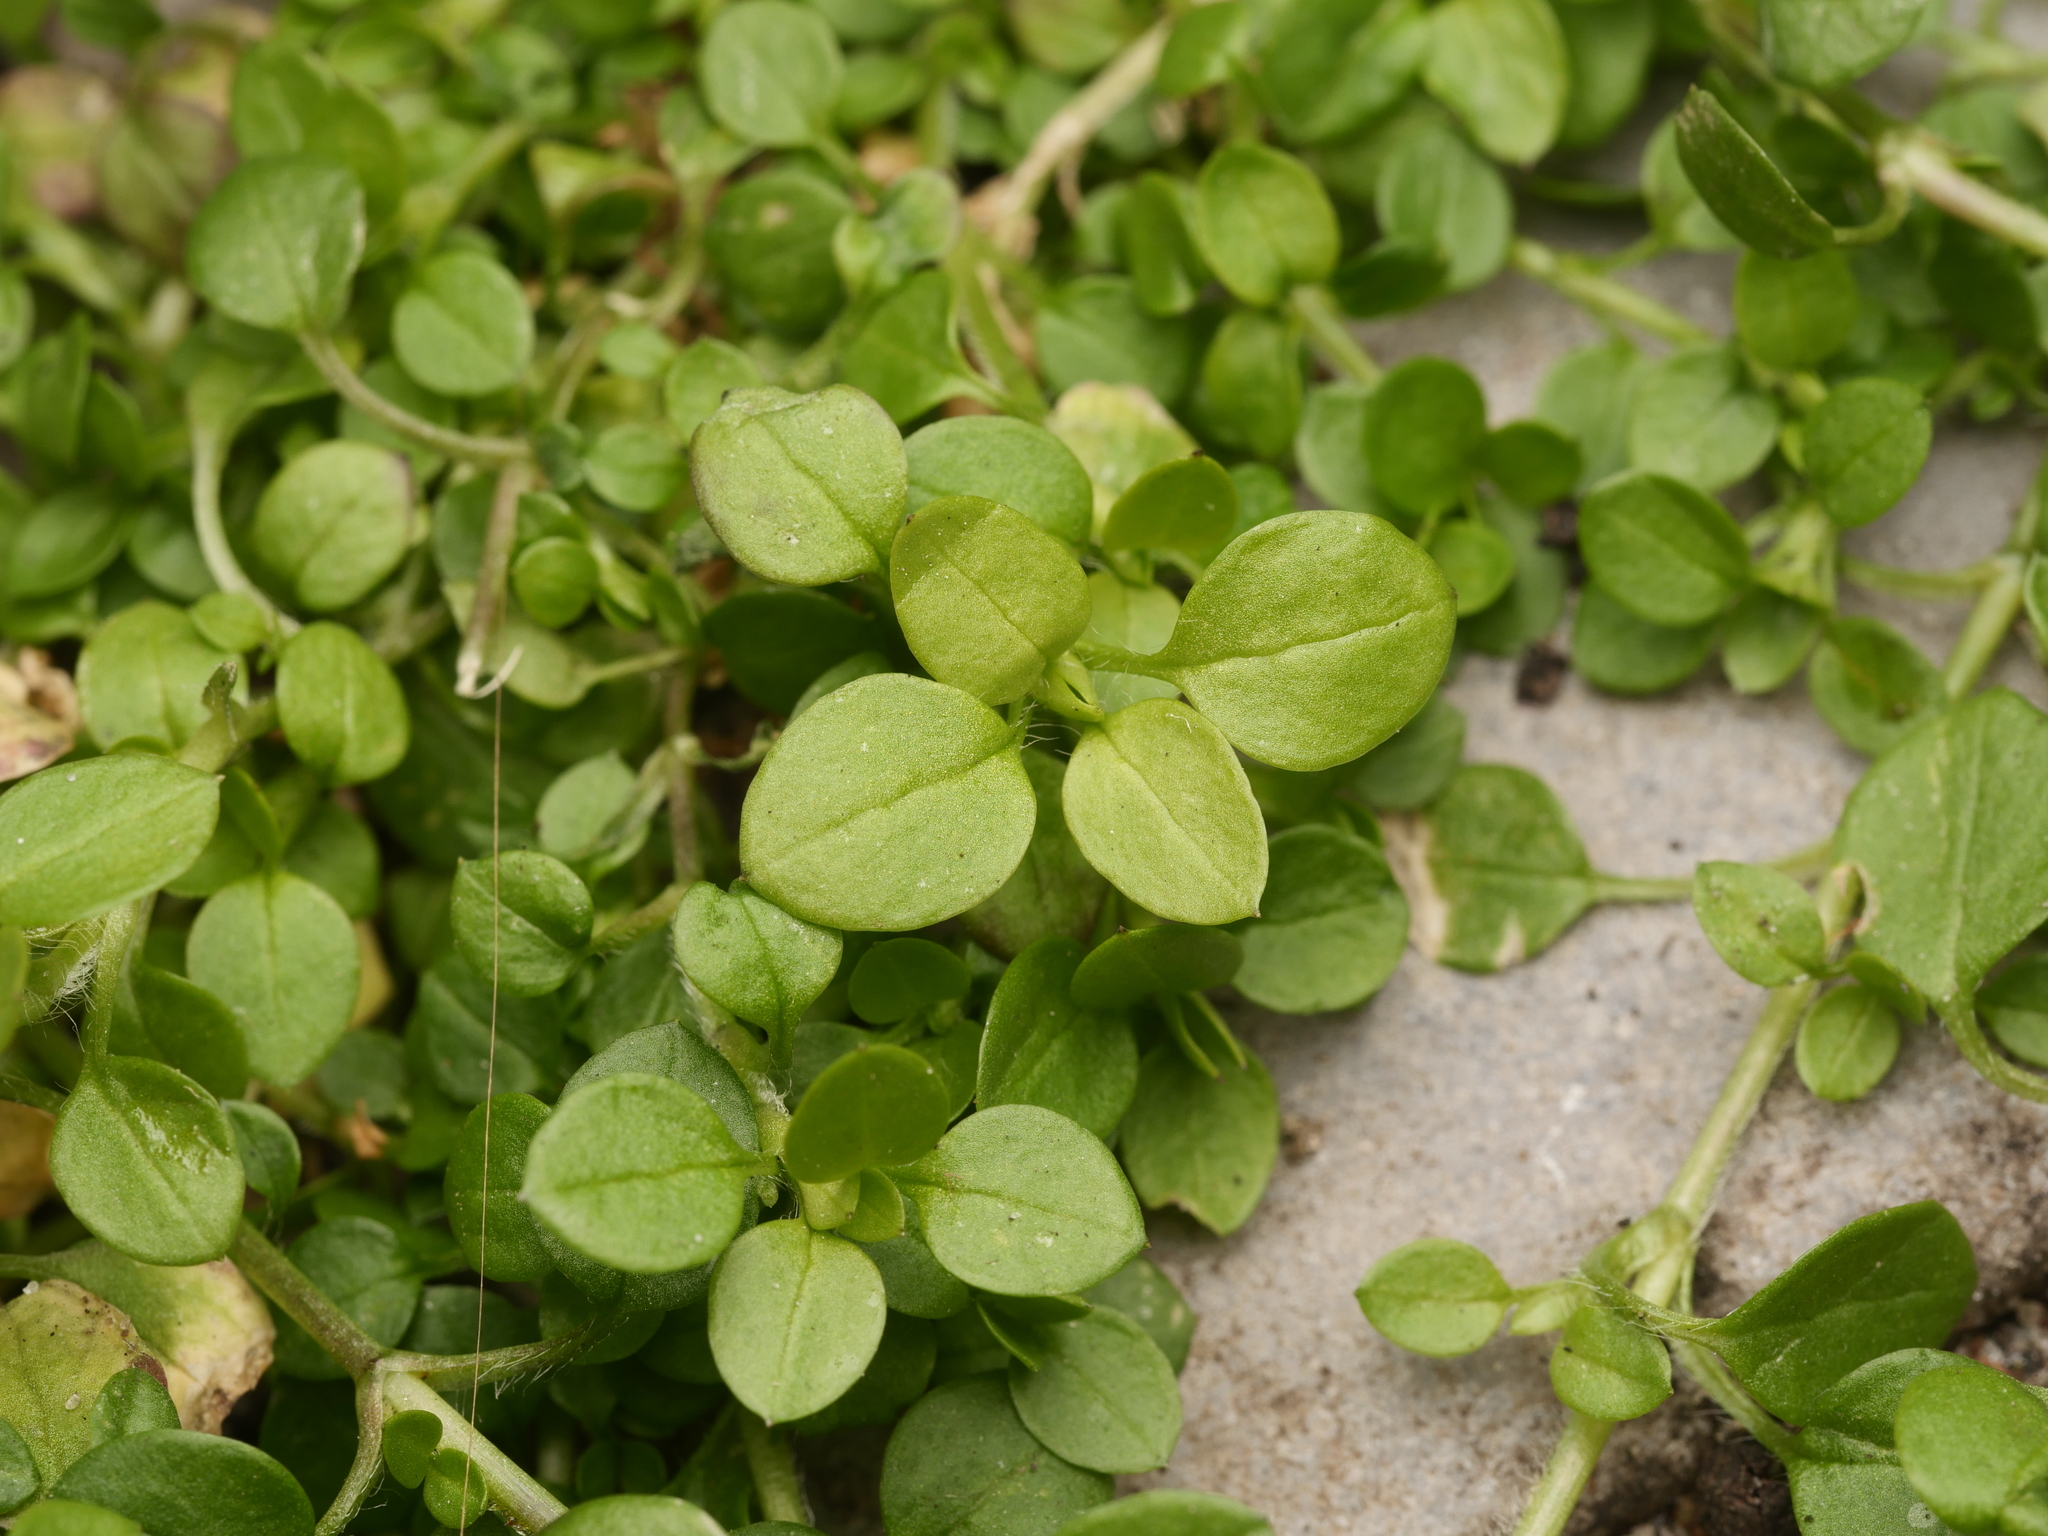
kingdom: Plantae
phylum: Tracheophyta
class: Magnoliopsida
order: Caryophyllales
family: Caryophyllaceae
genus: Stellaria
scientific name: Stellaria media
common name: Common chickweed
